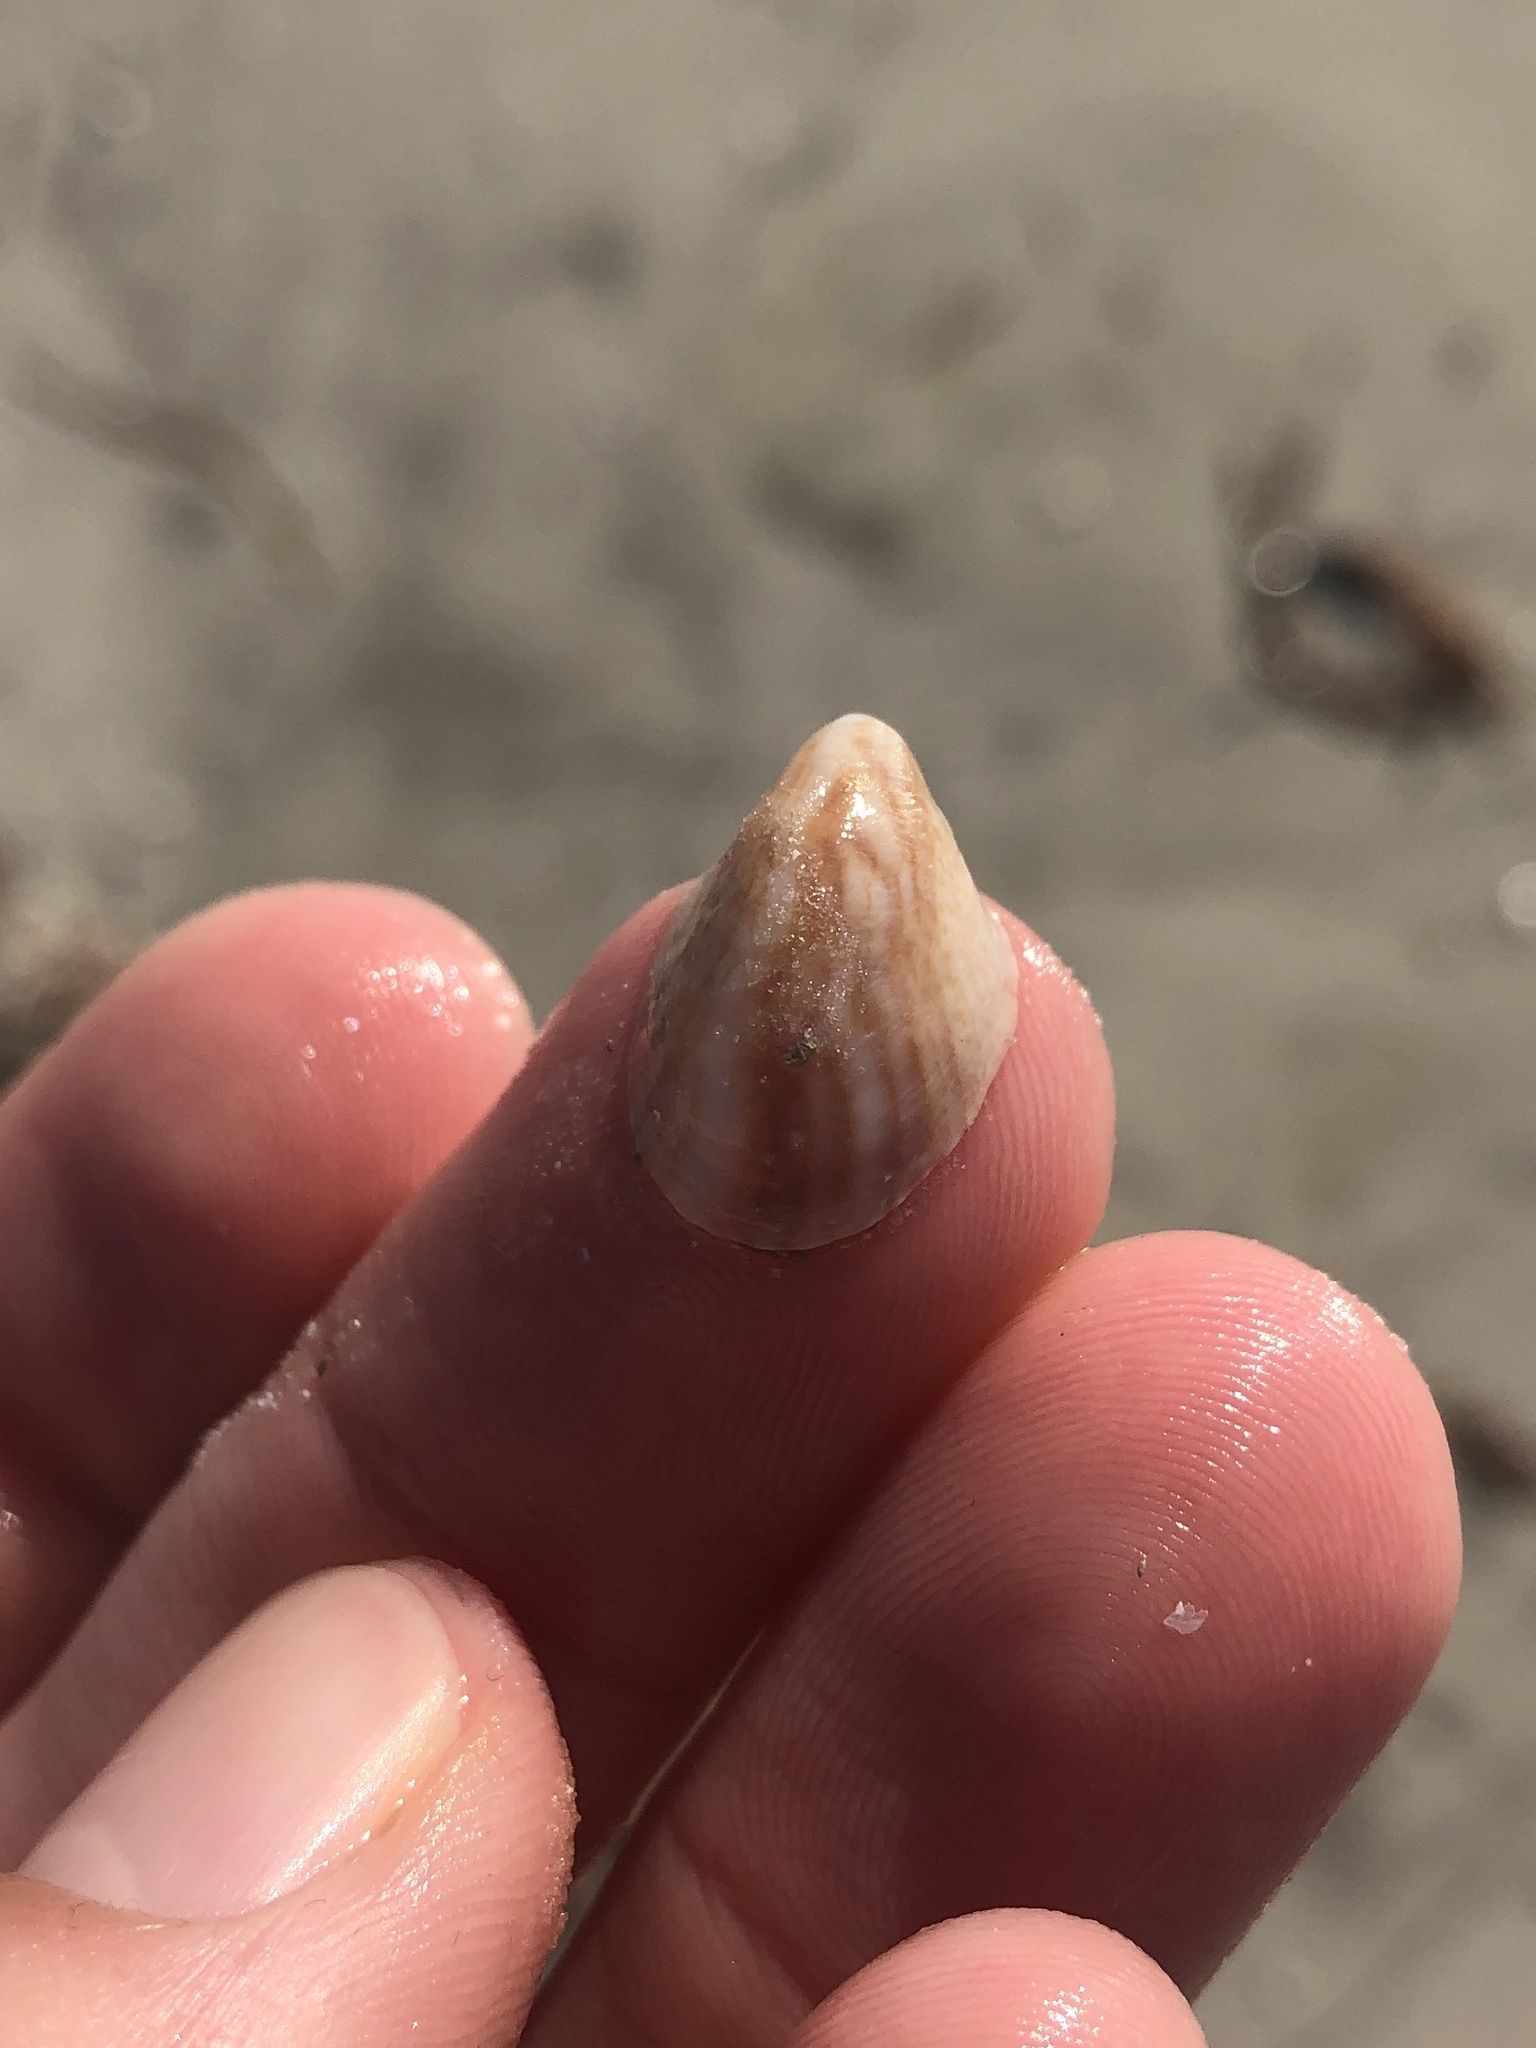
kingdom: Animalia
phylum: Mollusca
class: Gastropoda
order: Littorinimorpha
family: Calyptraeidae
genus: Crepidula
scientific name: Crepidula fornicata
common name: Slipper limpet
